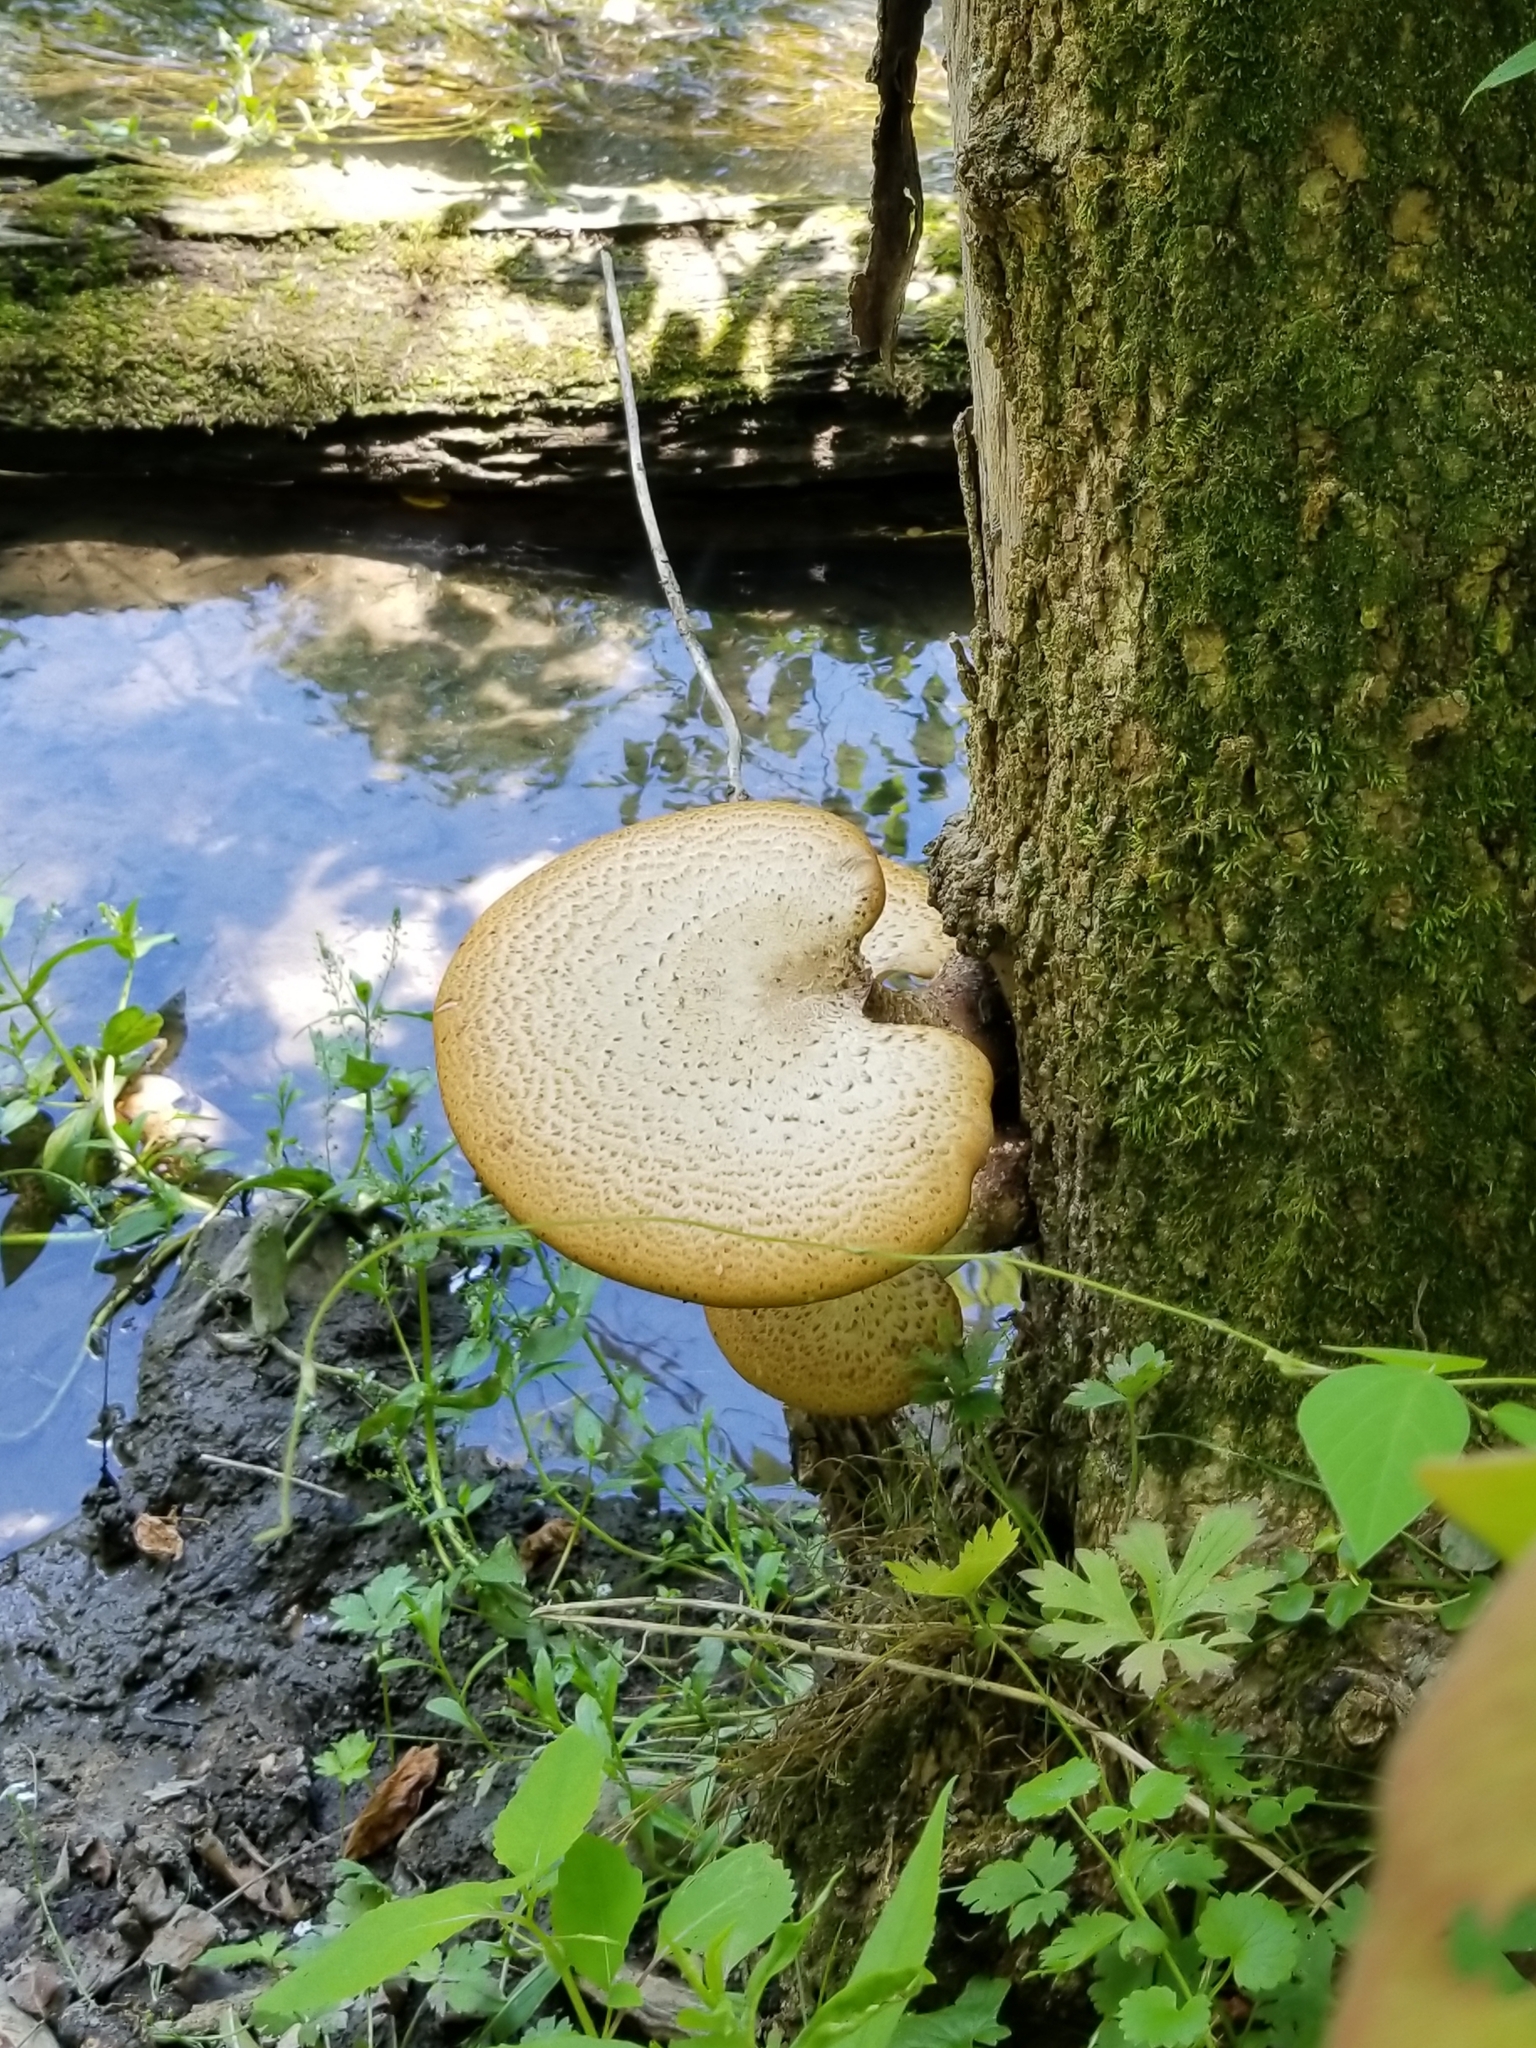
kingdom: Fungi
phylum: Basidiomycota
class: Agaricomycetes
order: Polyporales
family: Polyporaceae
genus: Cerioporus
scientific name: Cerioporus squamosus
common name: Dryad's saddle
